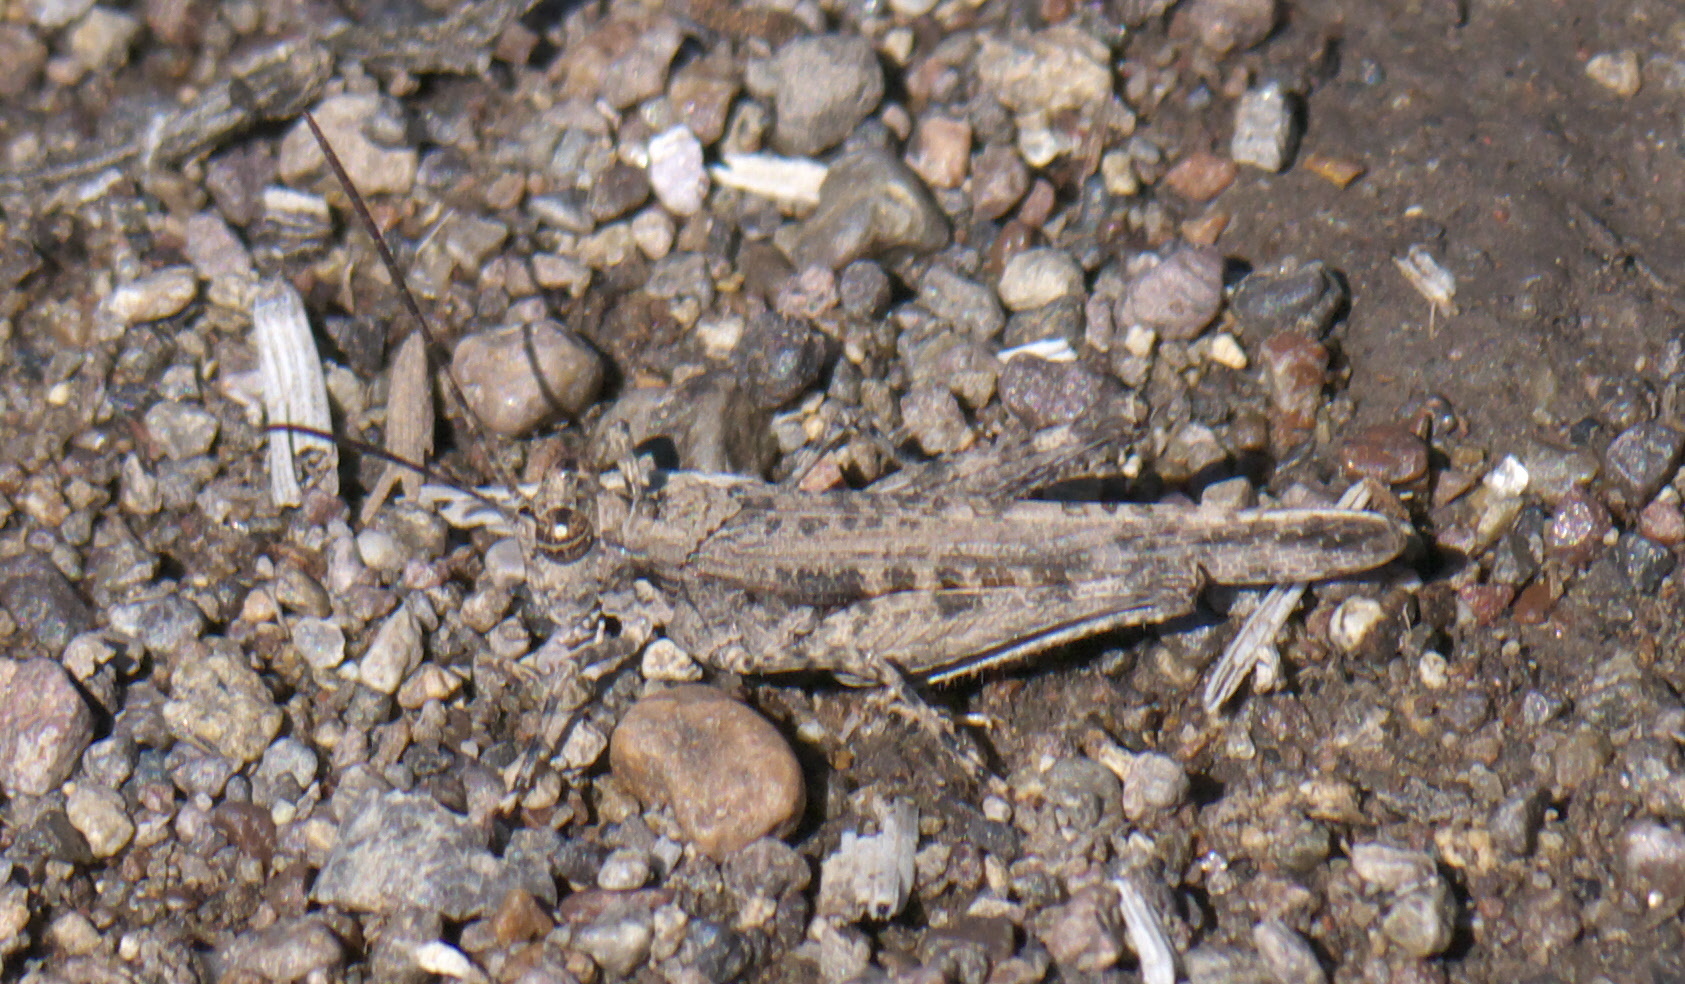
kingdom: Animalia
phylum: Arthropoda
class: Insecta
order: Orthoptera
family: Acrididae
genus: Derotmema
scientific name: Derotmema haydenii
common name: Hayden's grasshopper
